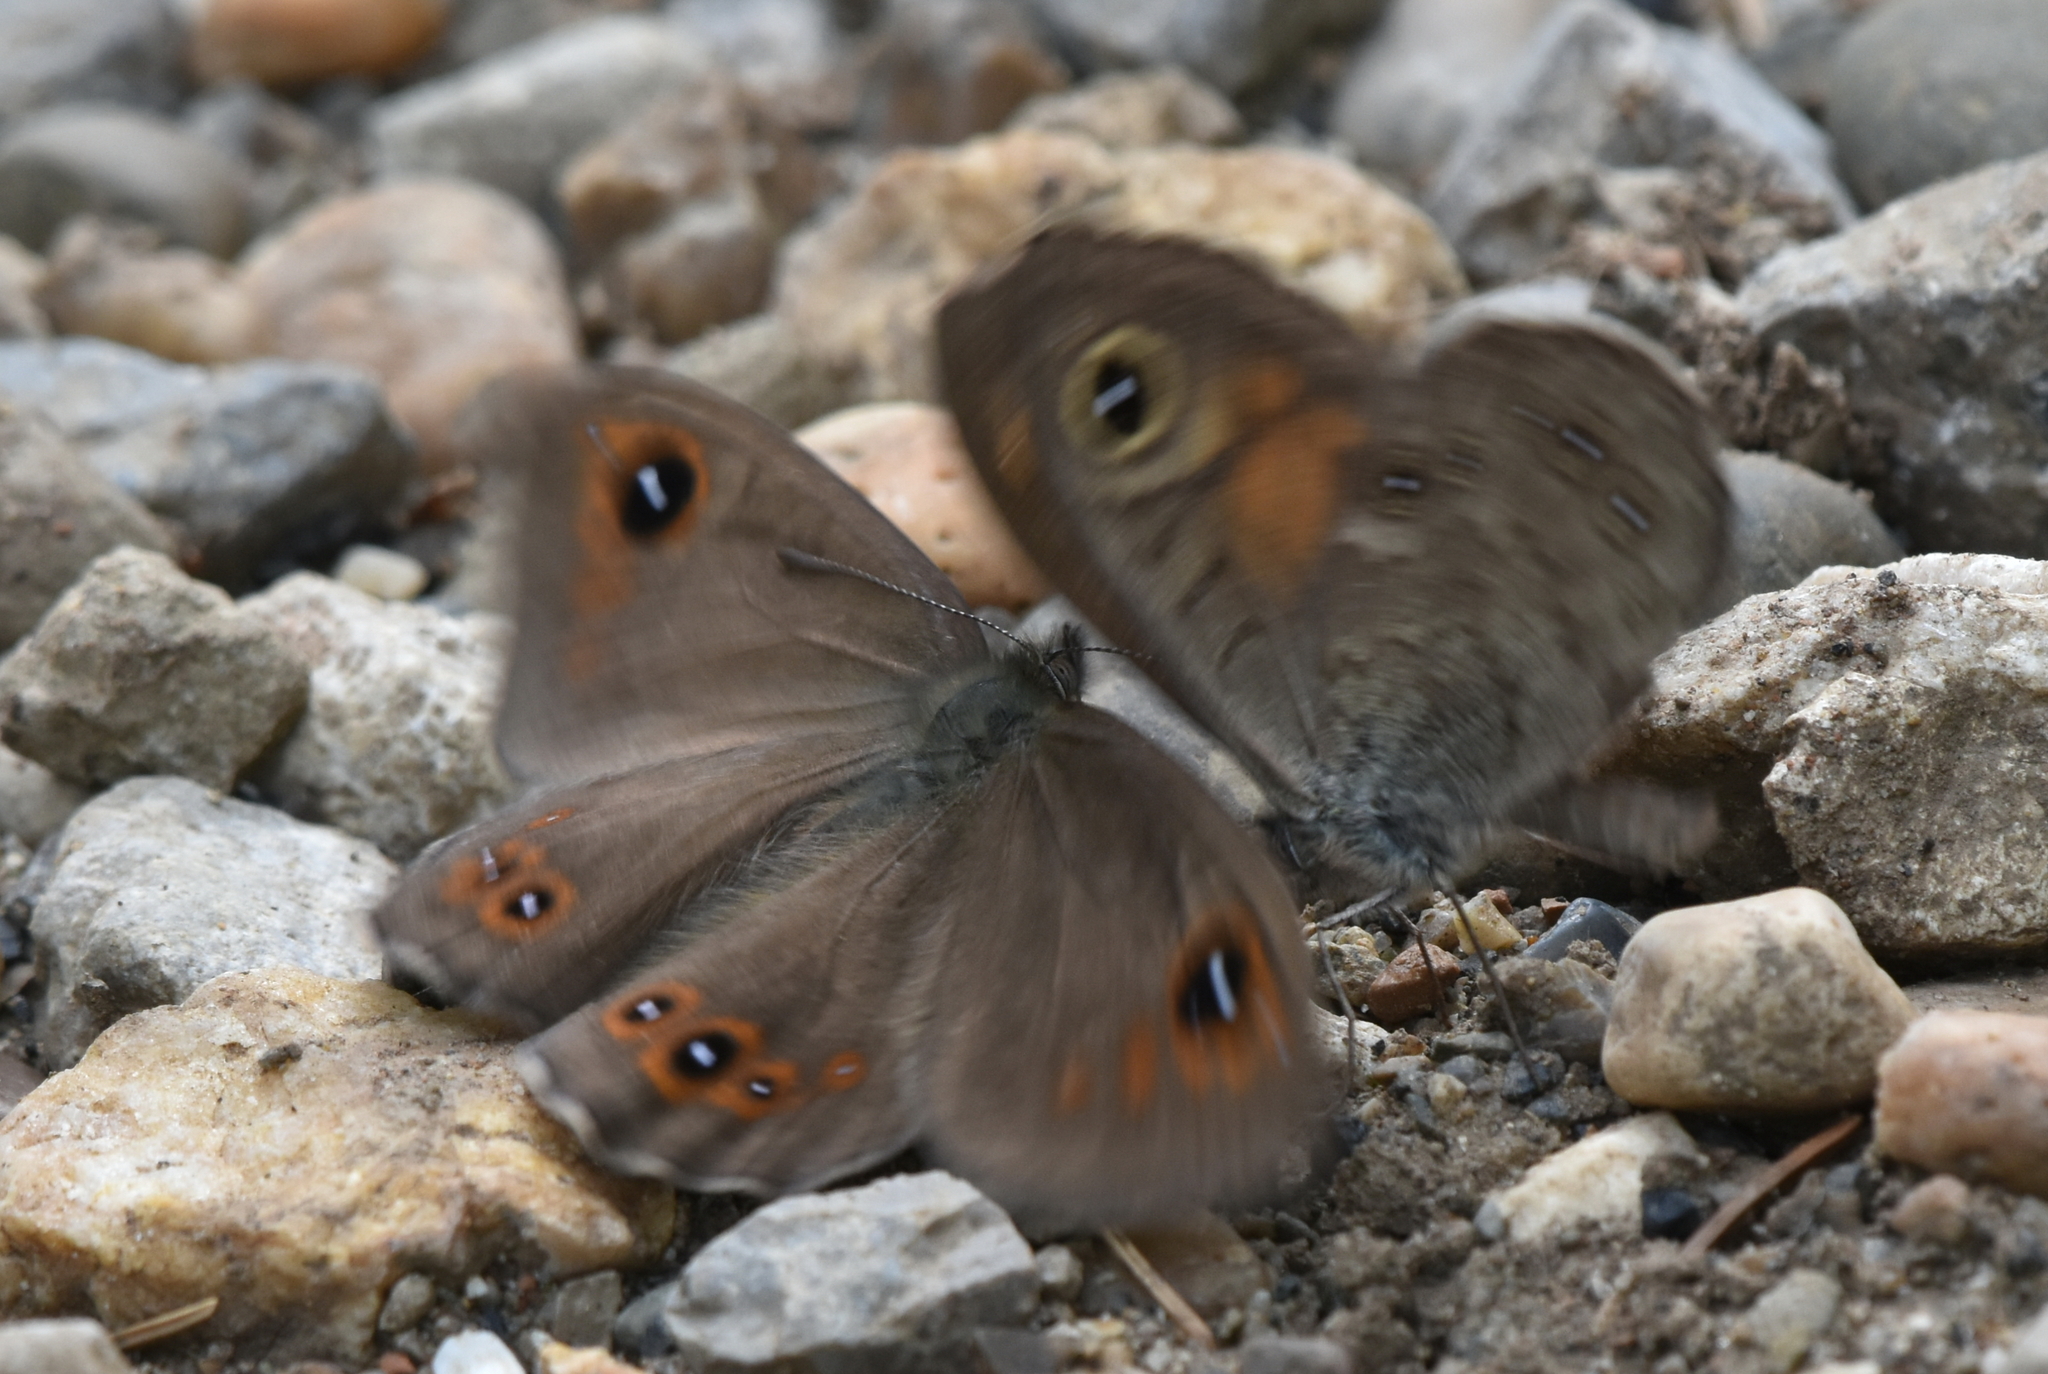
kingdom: Animalia
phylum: Arthropoda
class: Insecta
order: Lepidoptera
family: Nymphalidae
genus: Pararge
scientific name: Pararge Lasiommata maera
